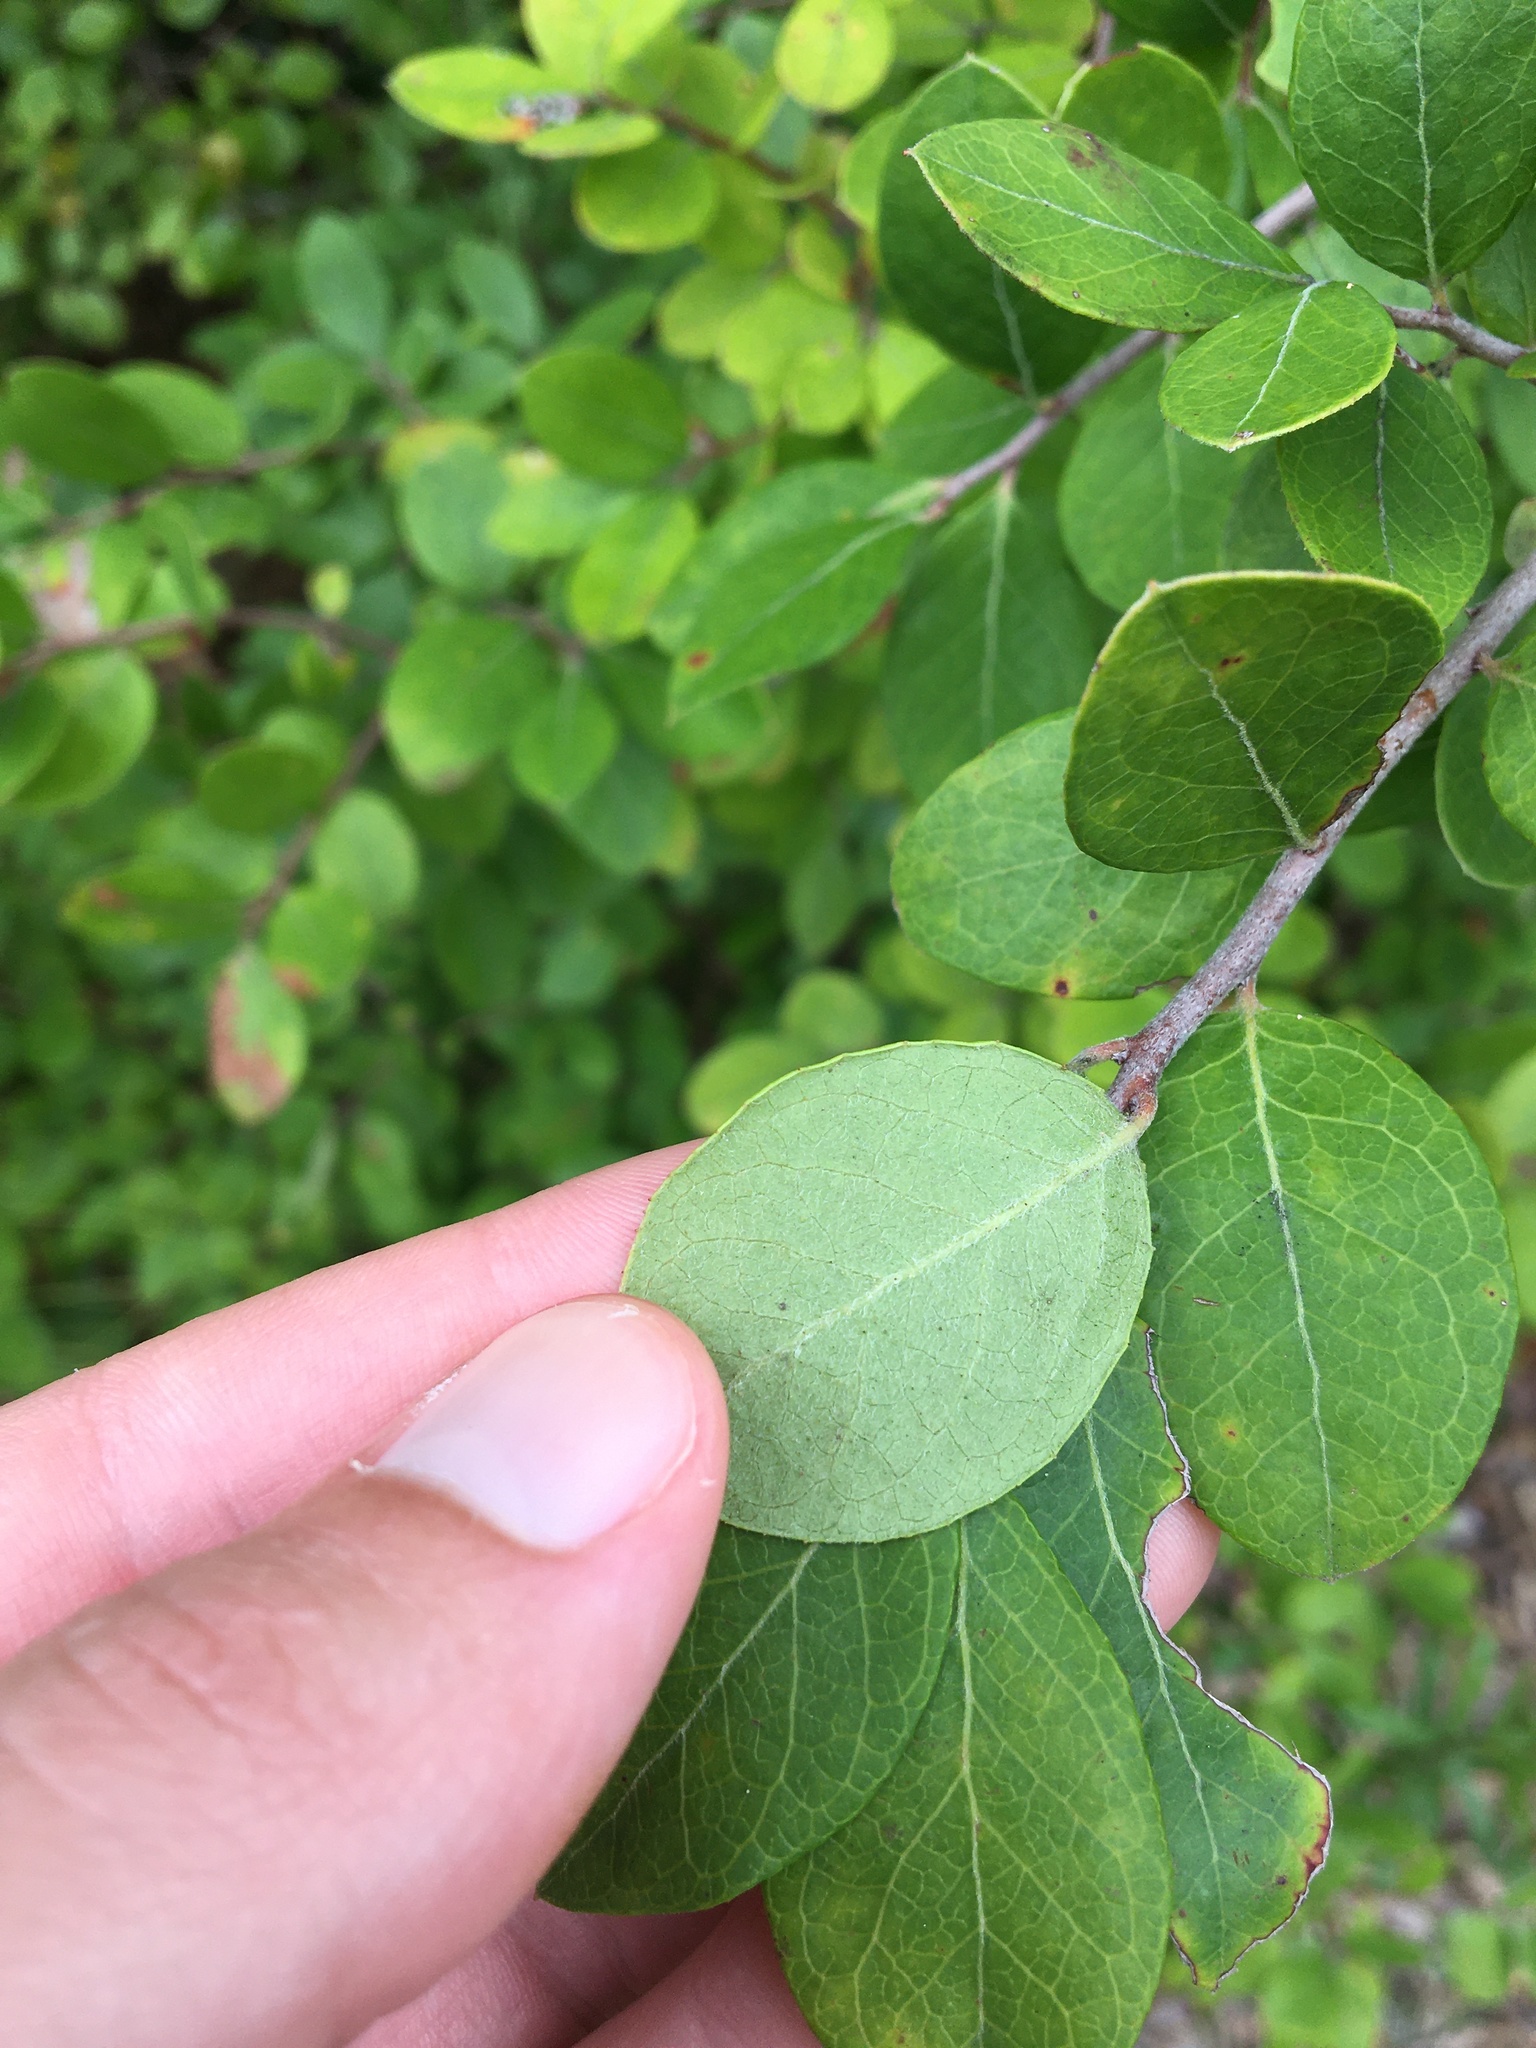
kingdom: Plantae
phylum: Tracheophyta
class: Magnoliopsida
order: Ericales
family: Ericaceae
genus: Vaccinium
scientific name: Vaccinium arboreum
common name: Farkleberry
